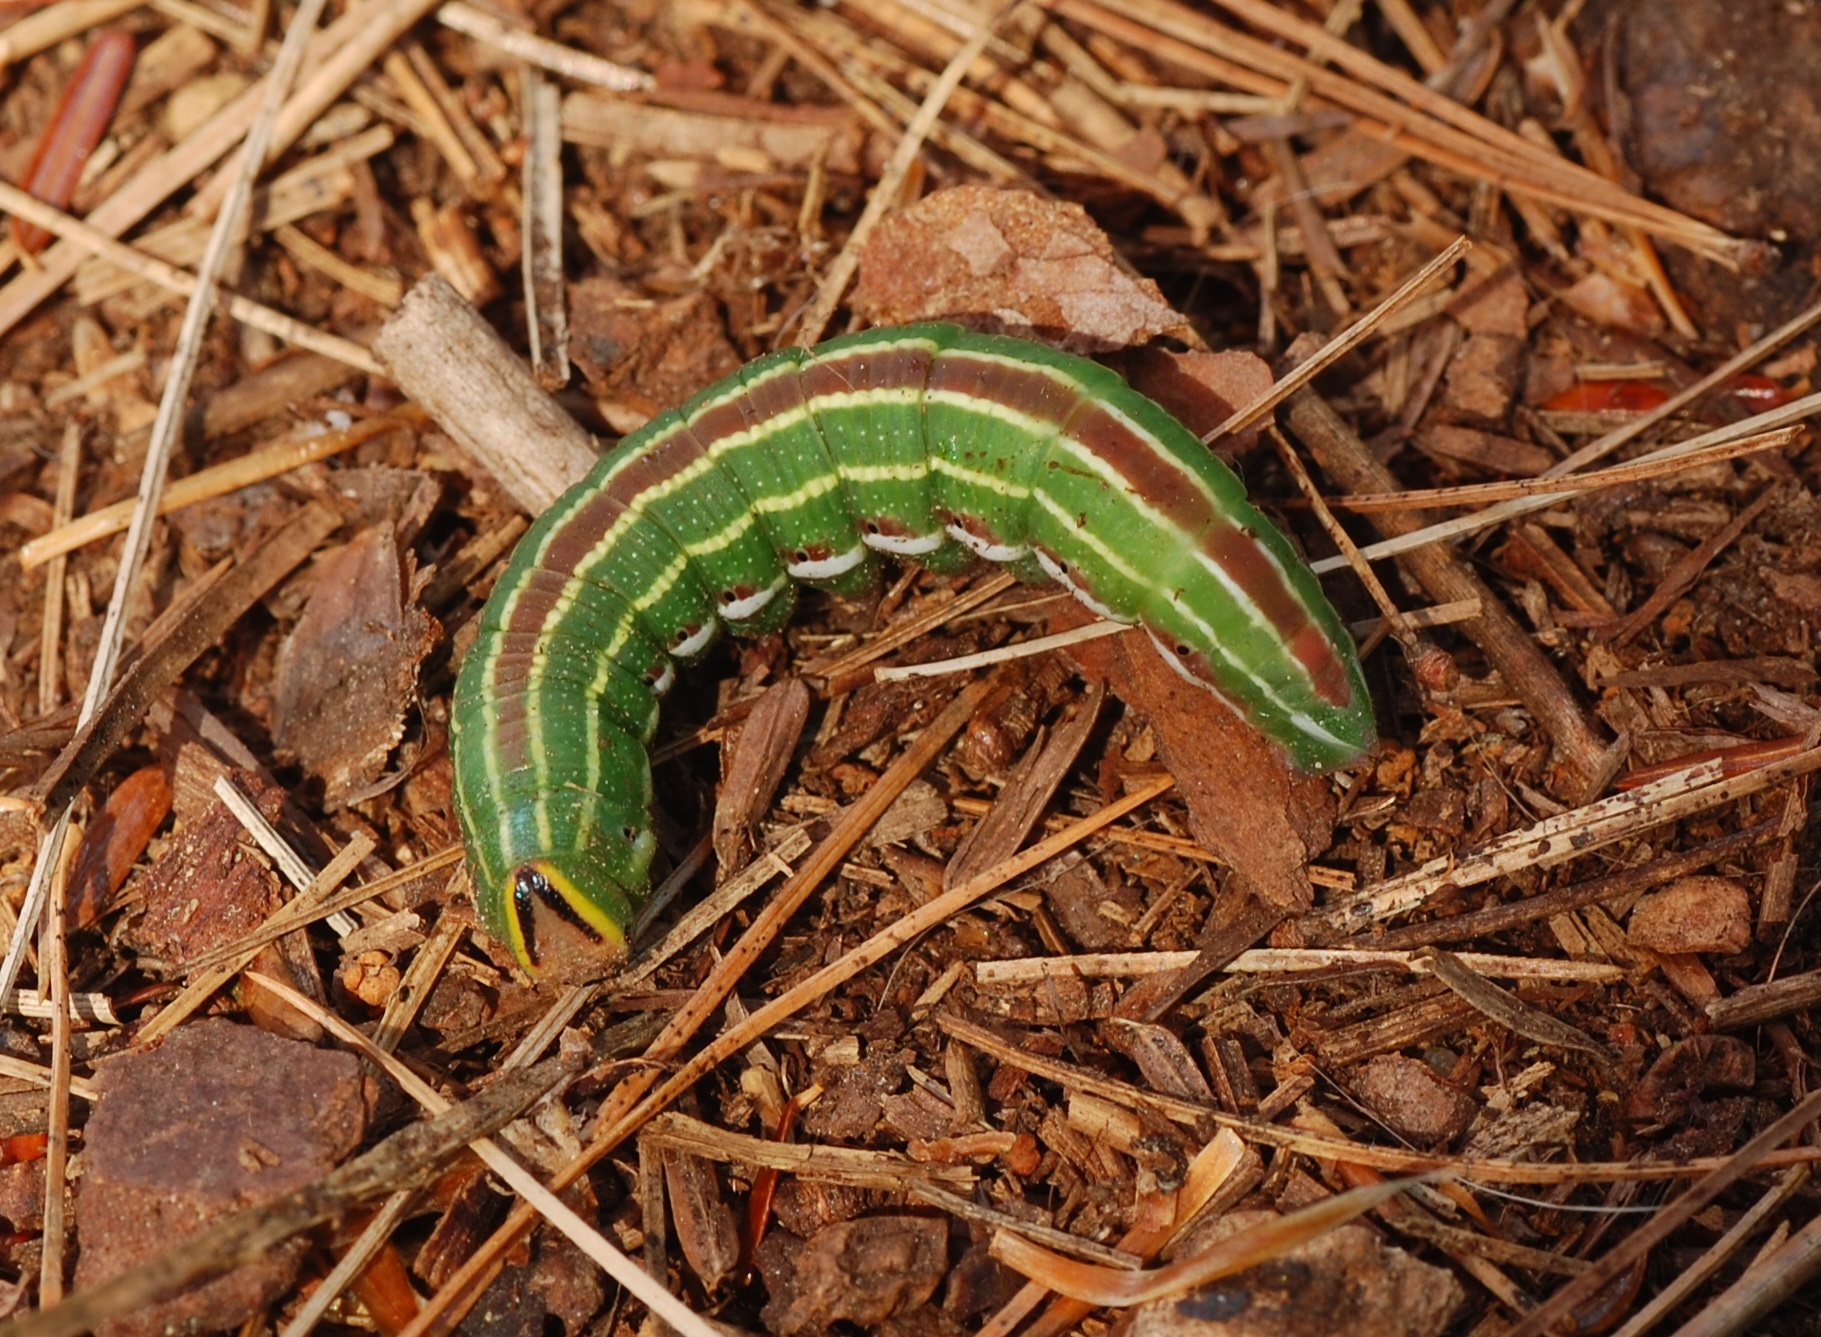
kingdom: Animalia
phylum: Arthropoda
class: Insecta
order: Lepidoptera
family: Sphingidae
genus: Lapara
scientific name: Lapara bombycoides
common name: Northern pine sphinx
